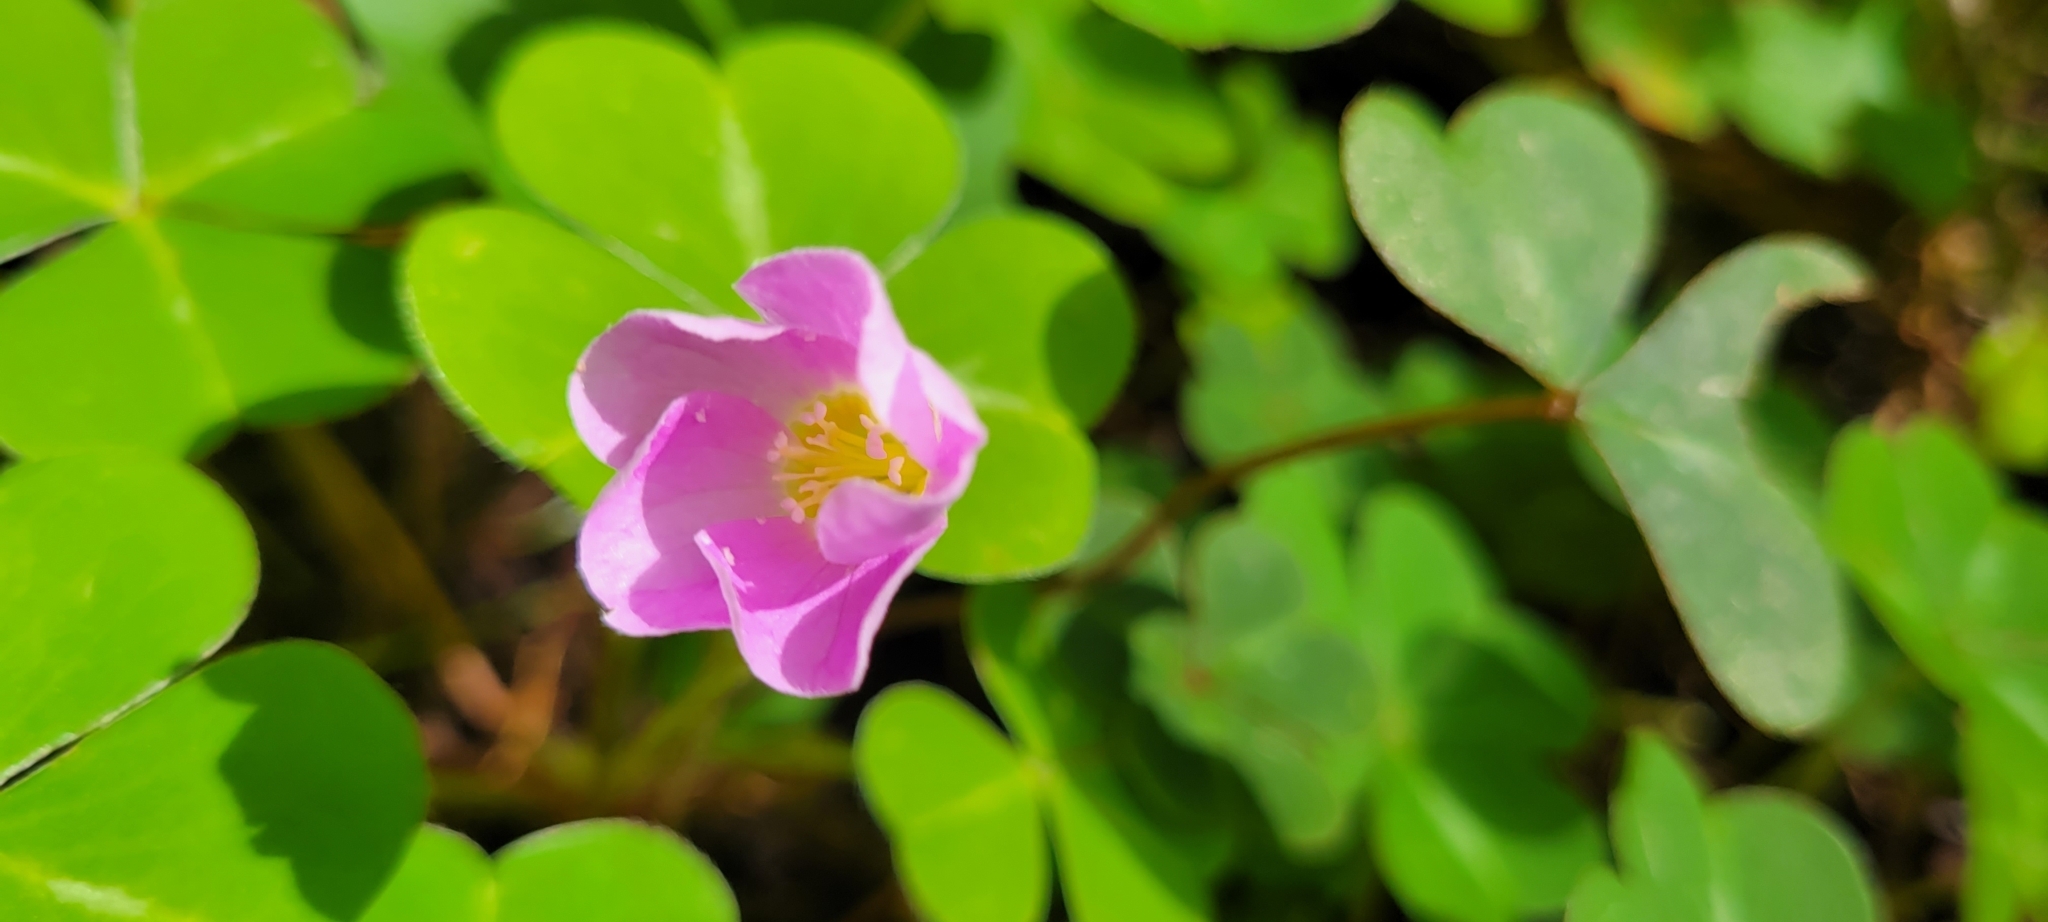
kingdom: Plantae
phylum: Tracheophyta
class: Magnoliopsida
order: Oxalidales
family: Oxalidaceae
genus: Oxalis
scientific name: Oxalis oregana
